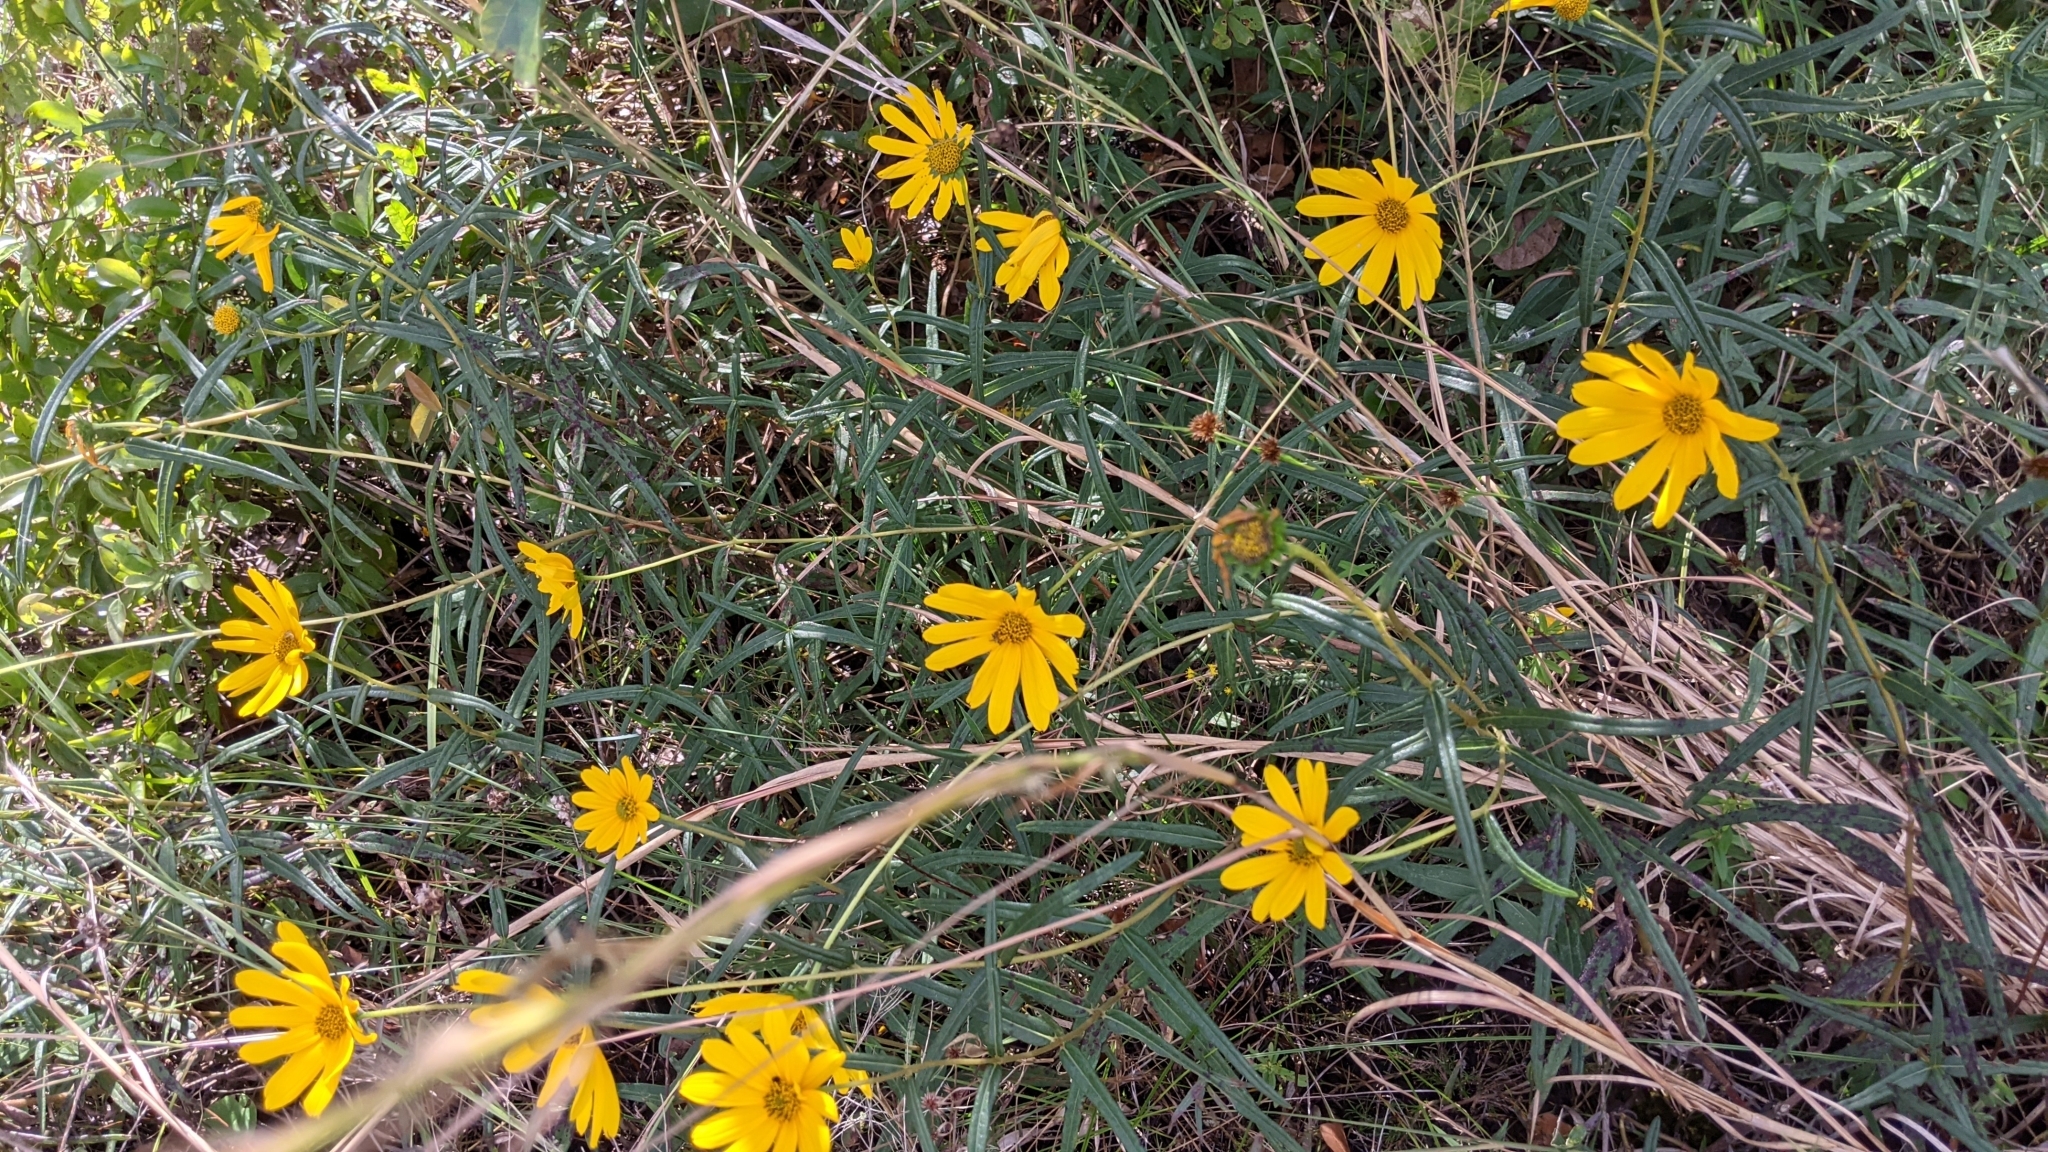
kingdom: Plantae
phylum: Tracheophyta
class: Magnoliopsida
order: Asterales
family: Asteraceae
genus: Helianthus
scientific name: Helianthus angustifolius
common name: Swamp sunflower
